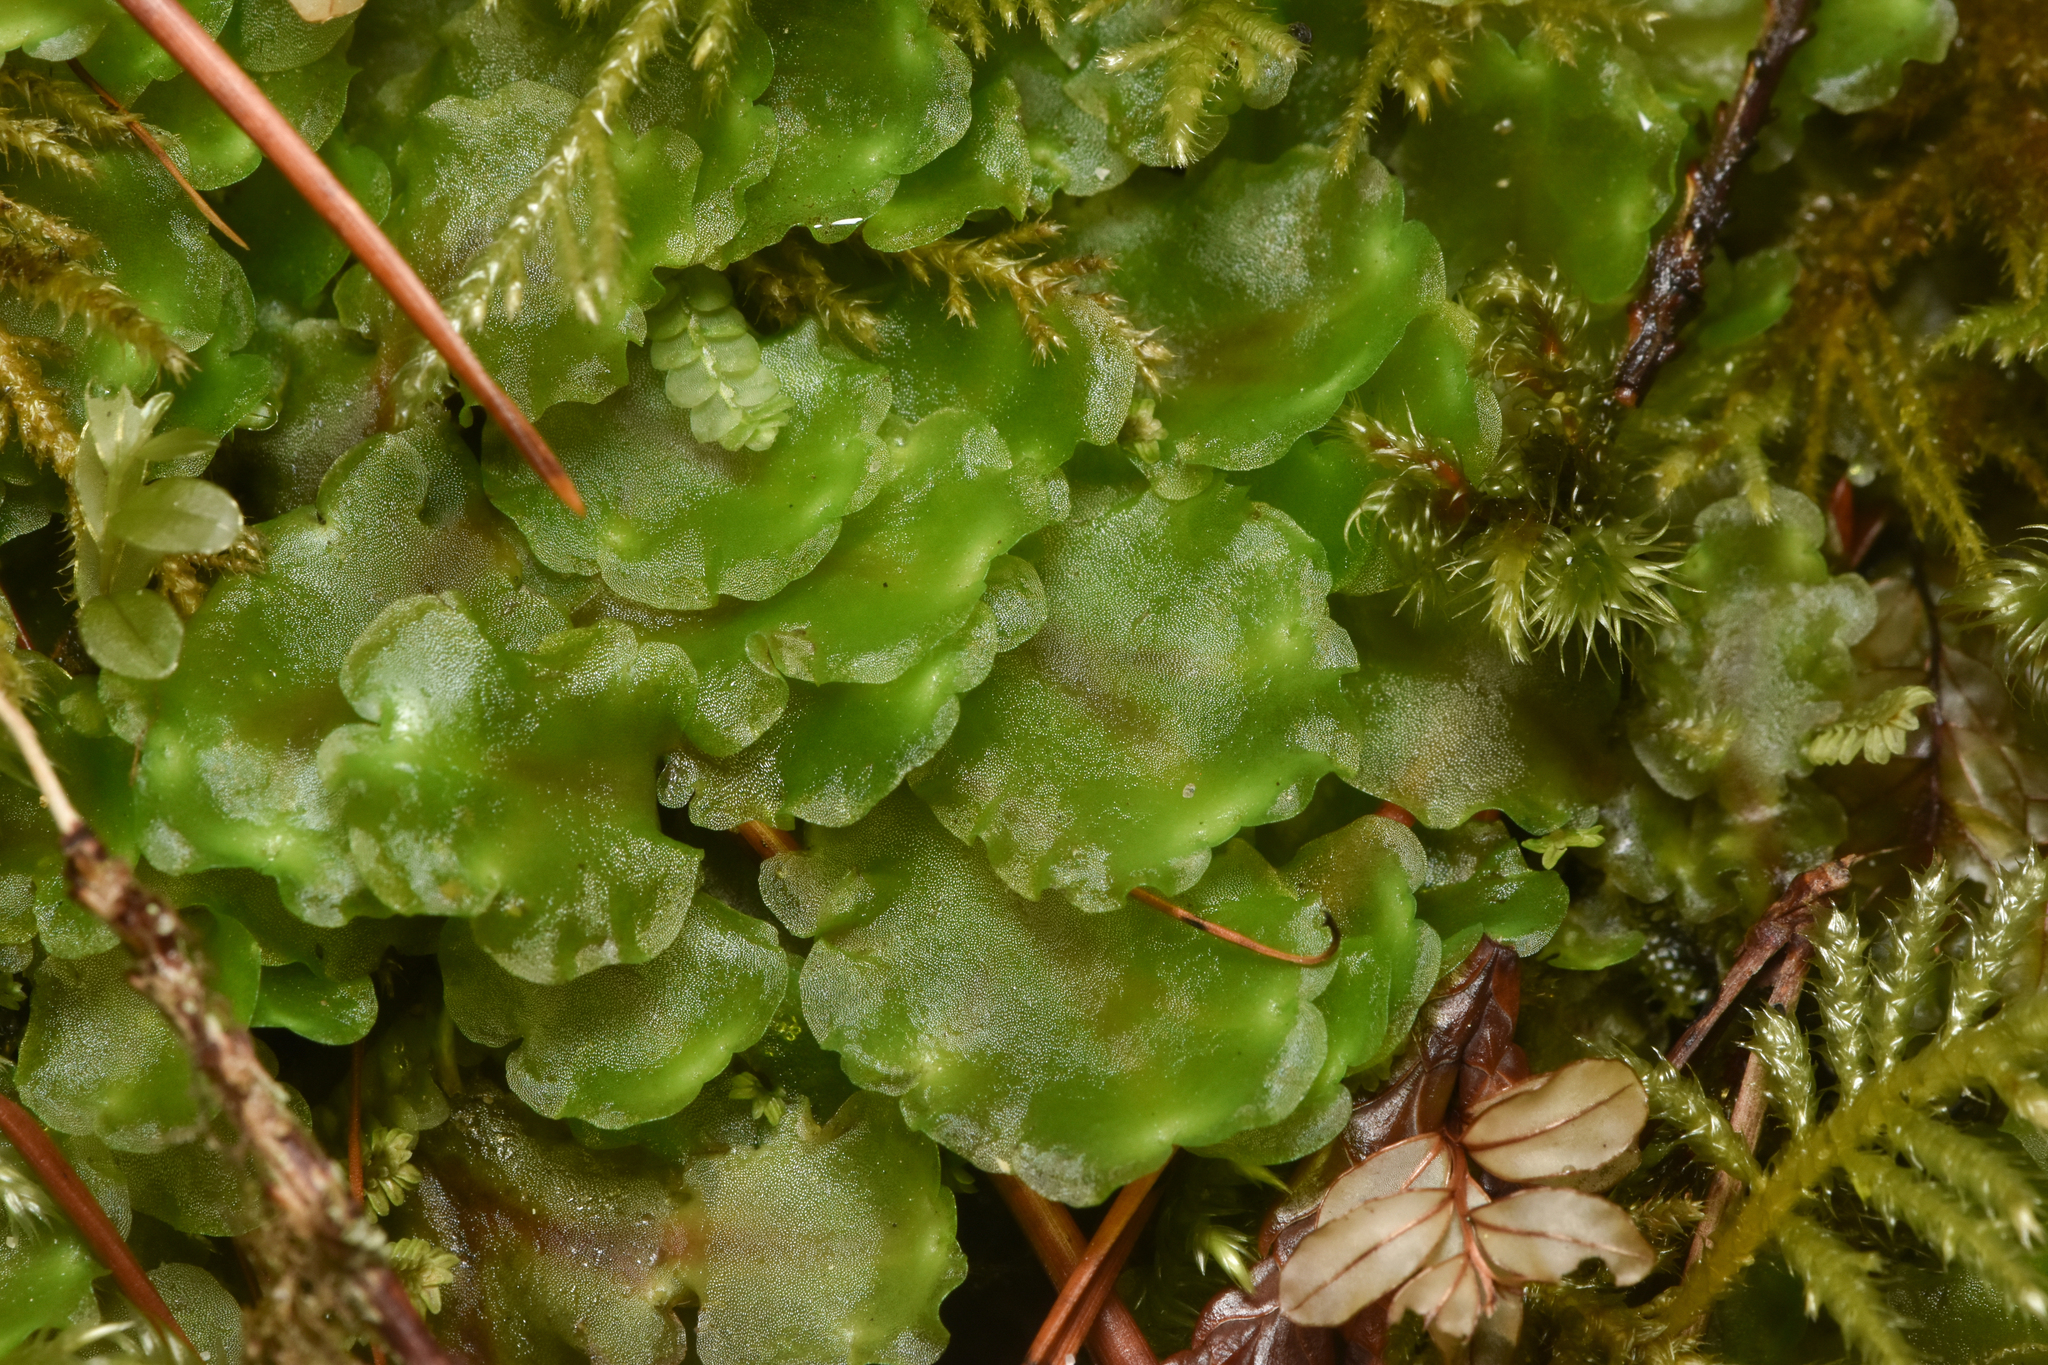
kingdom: Plantae
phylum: Marchantiophyta
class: Jungermanniopsida
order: Pelliales
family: Pelliaceae
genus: Pellia
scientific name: Pellia neesiana
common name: Nees  pellia
